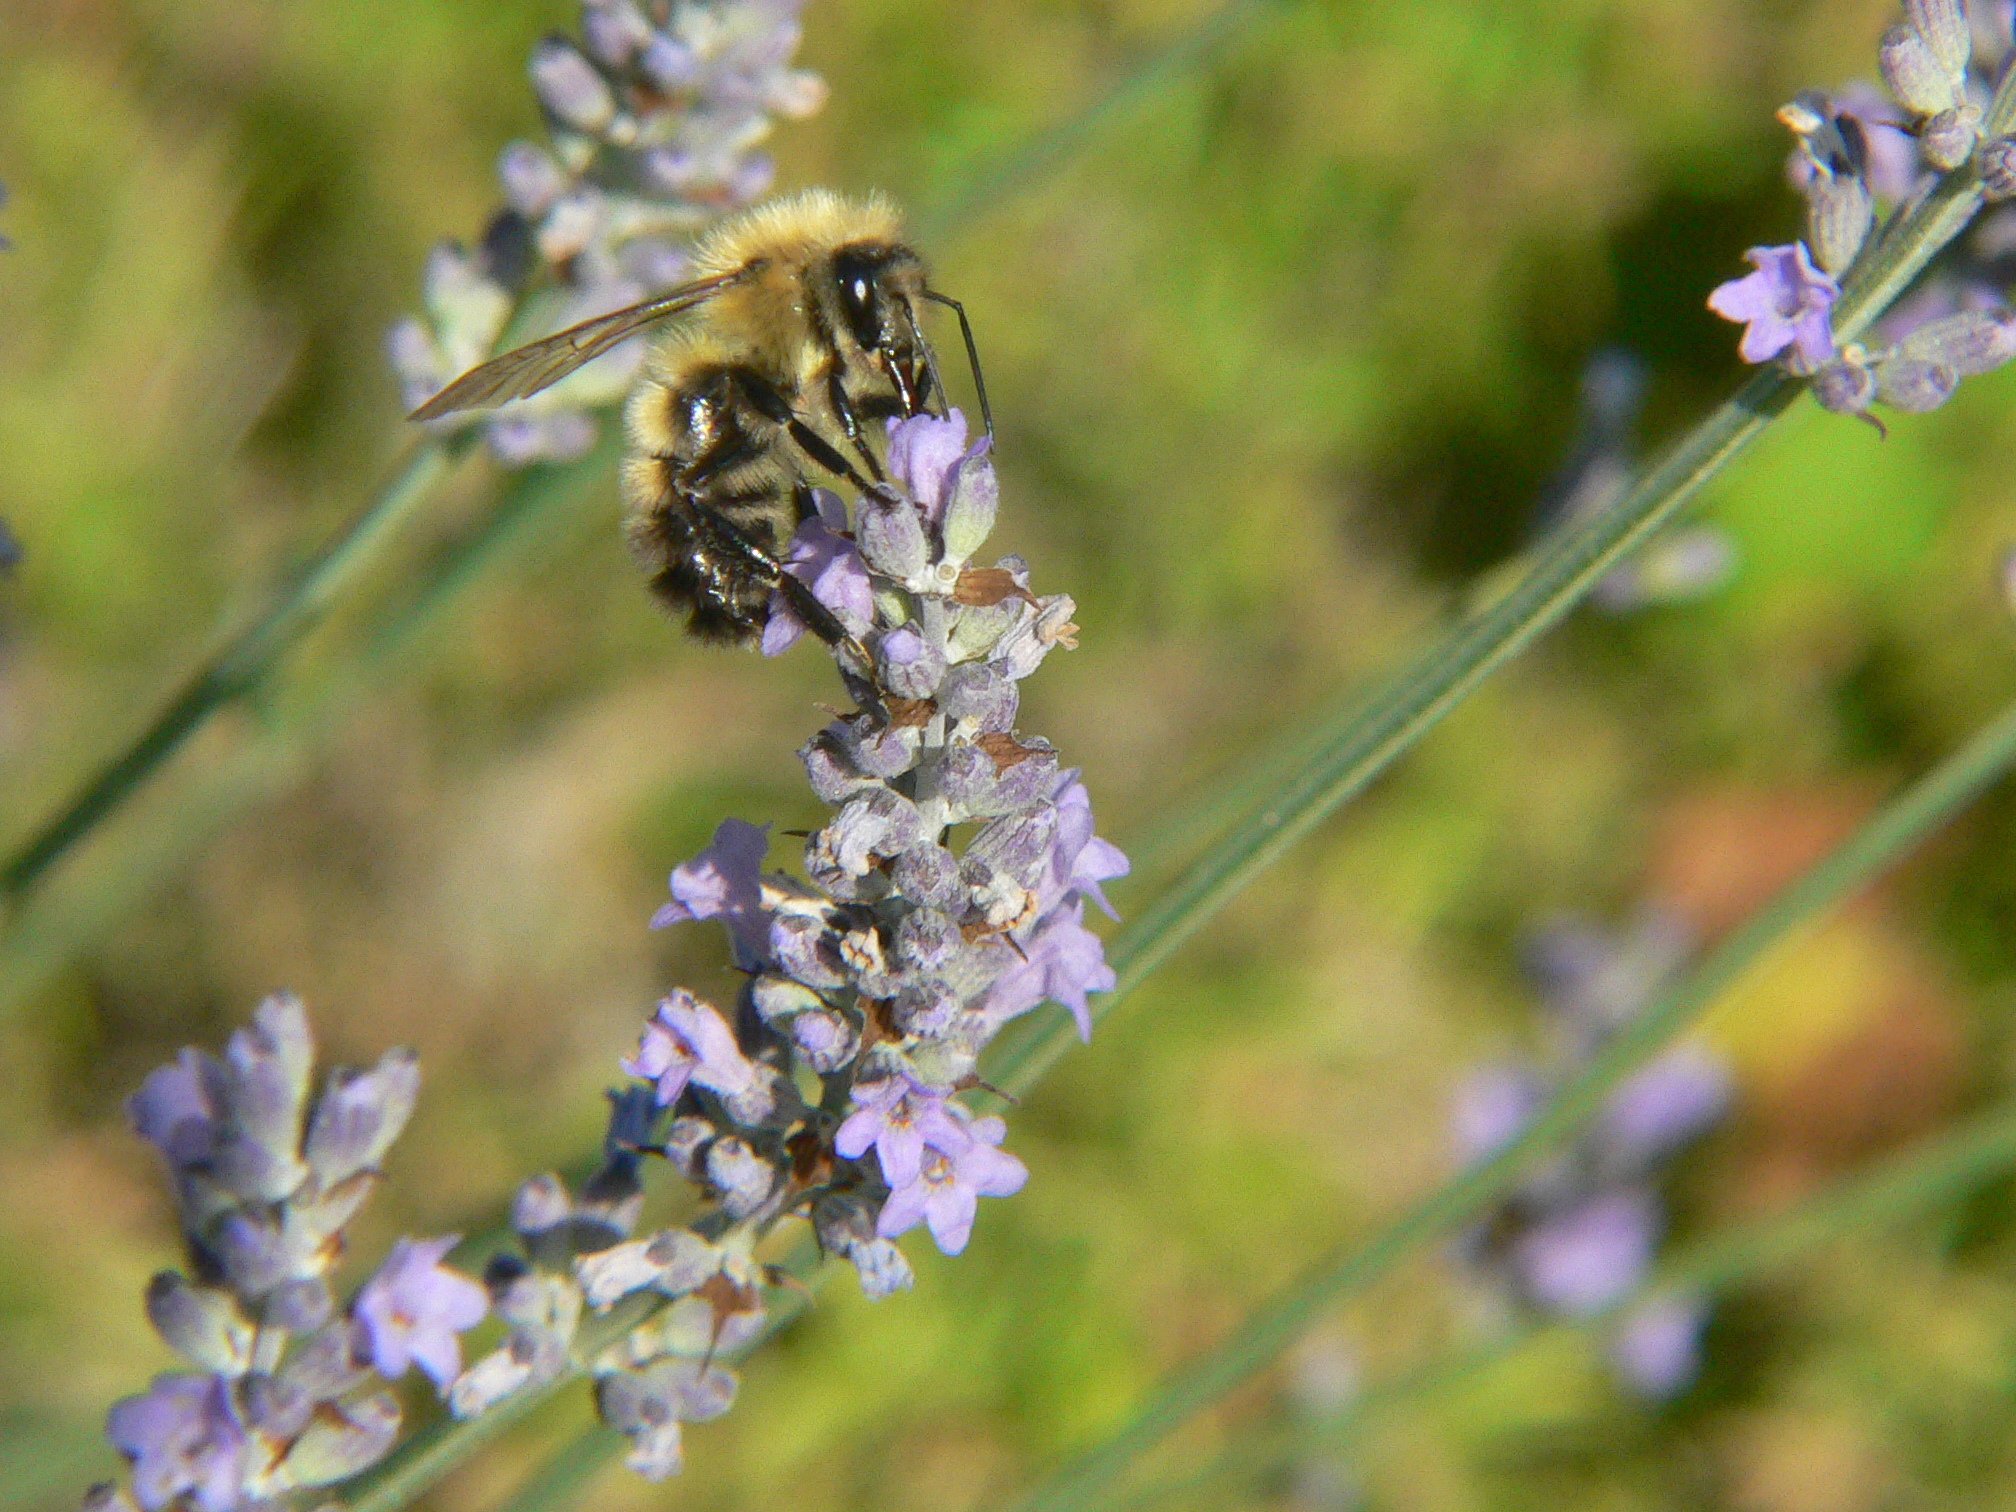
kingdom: Animalia
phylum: Arthropoda
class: Insecta
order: Hymenoptera
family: Apidae
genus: Bombus
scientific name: Bombus perplexus
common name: Confusing bumble bee
